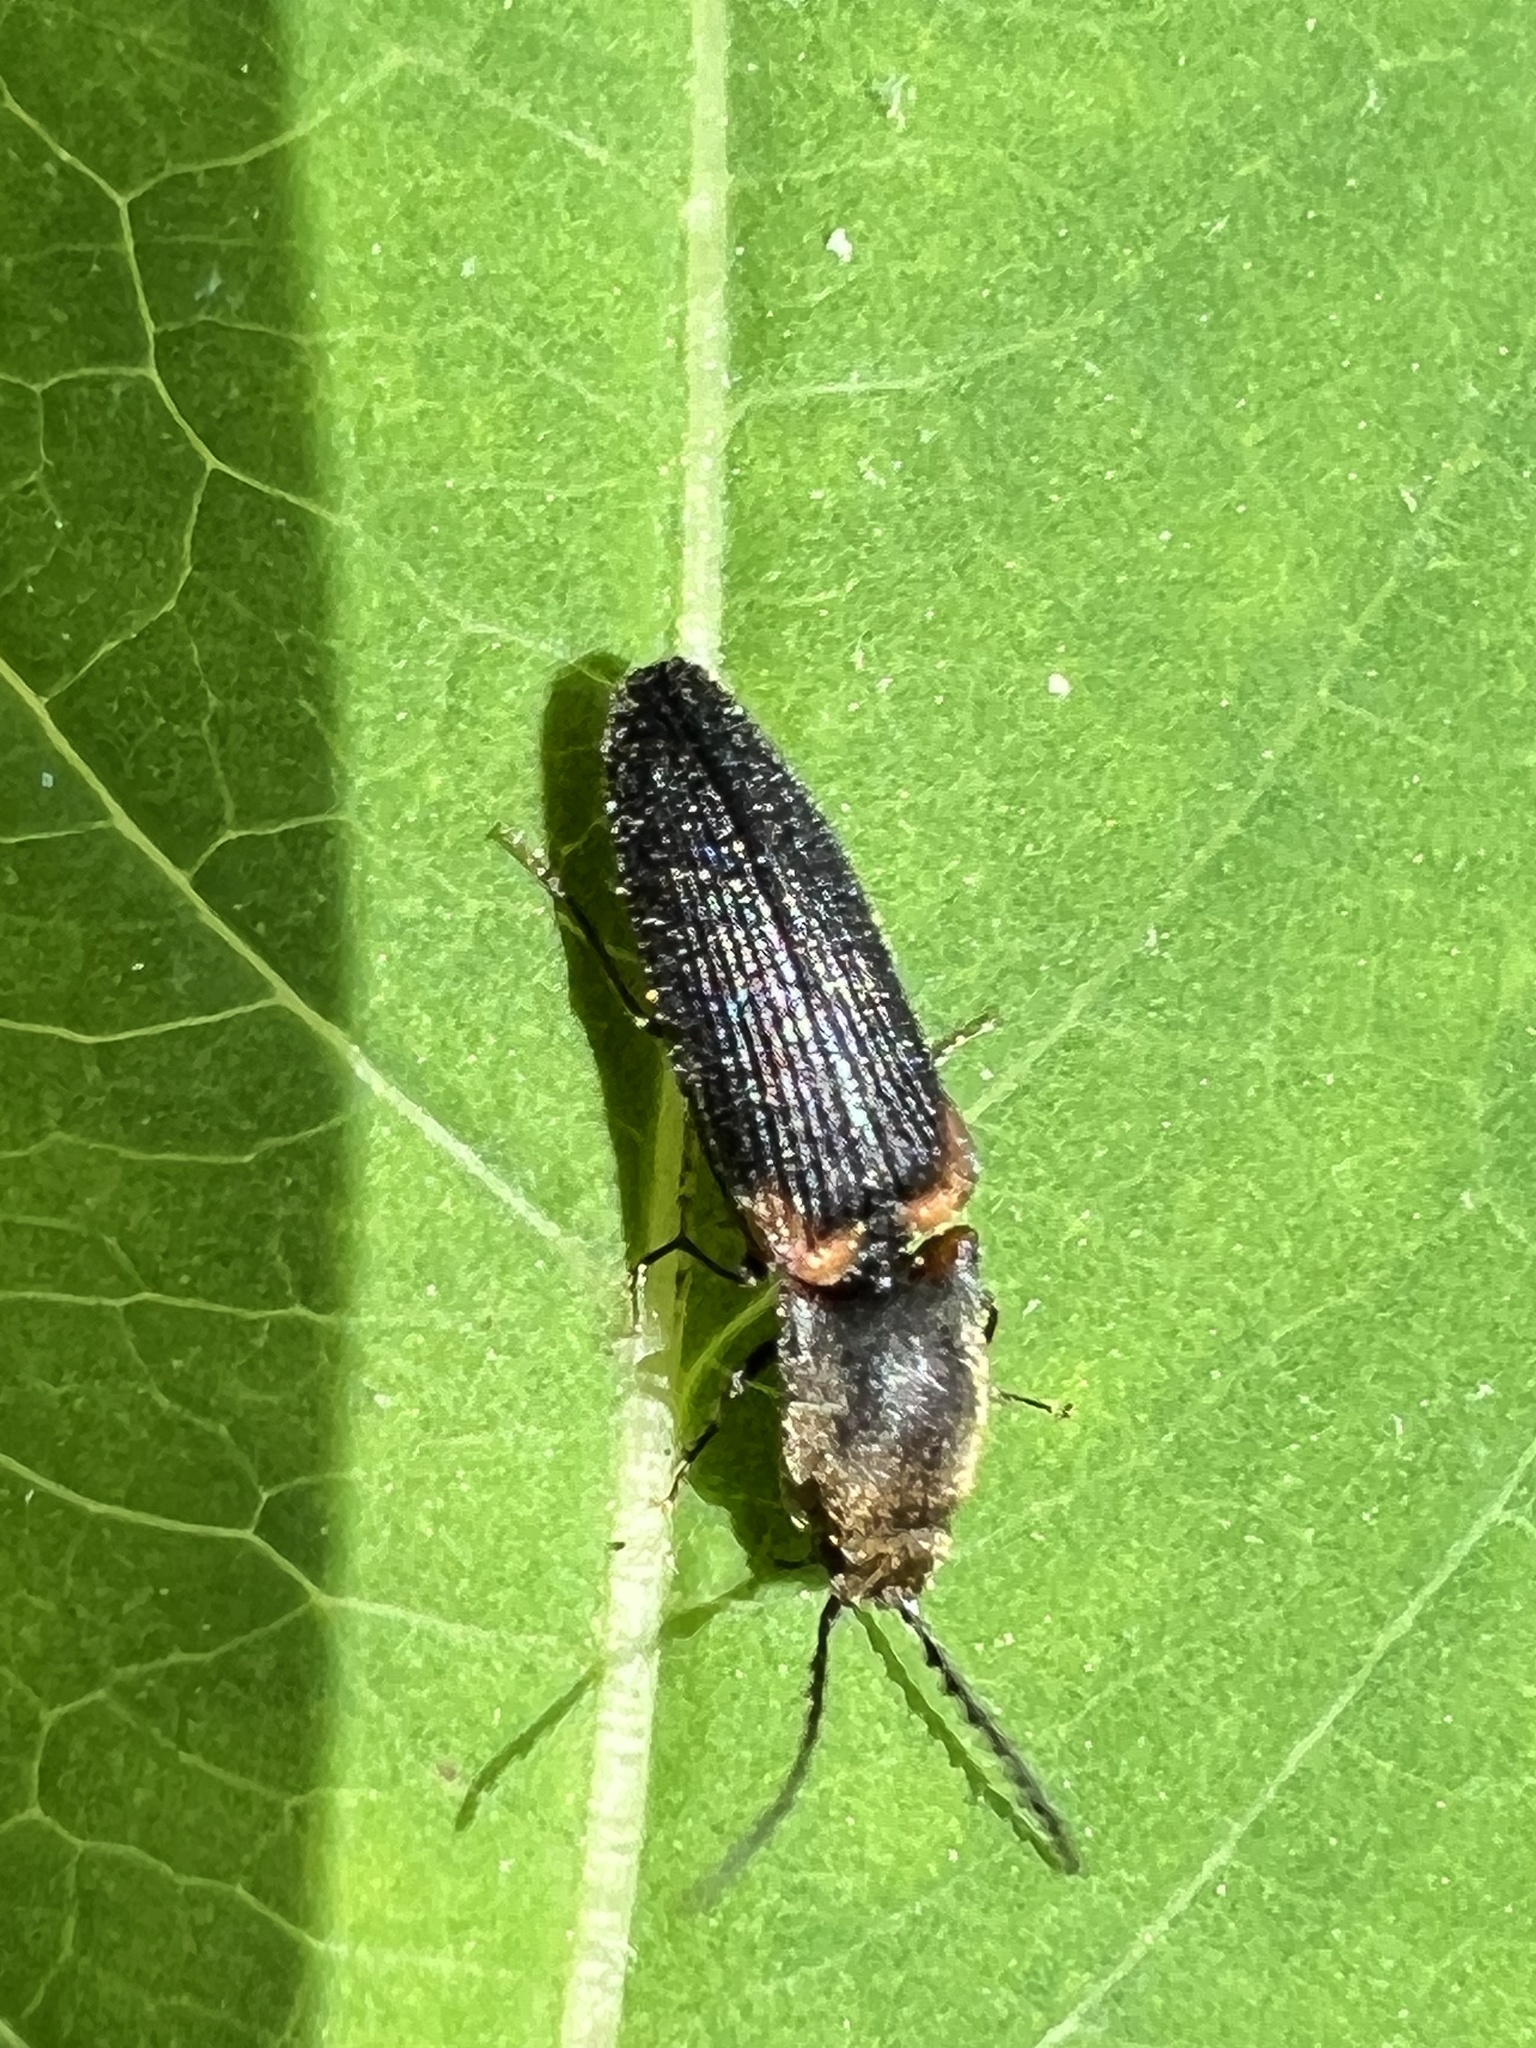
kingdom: Animalia
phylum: Arthropoda
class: Insecta
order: Coleoptera
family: Elateridae
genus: Athous
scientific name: Athous scapularis
